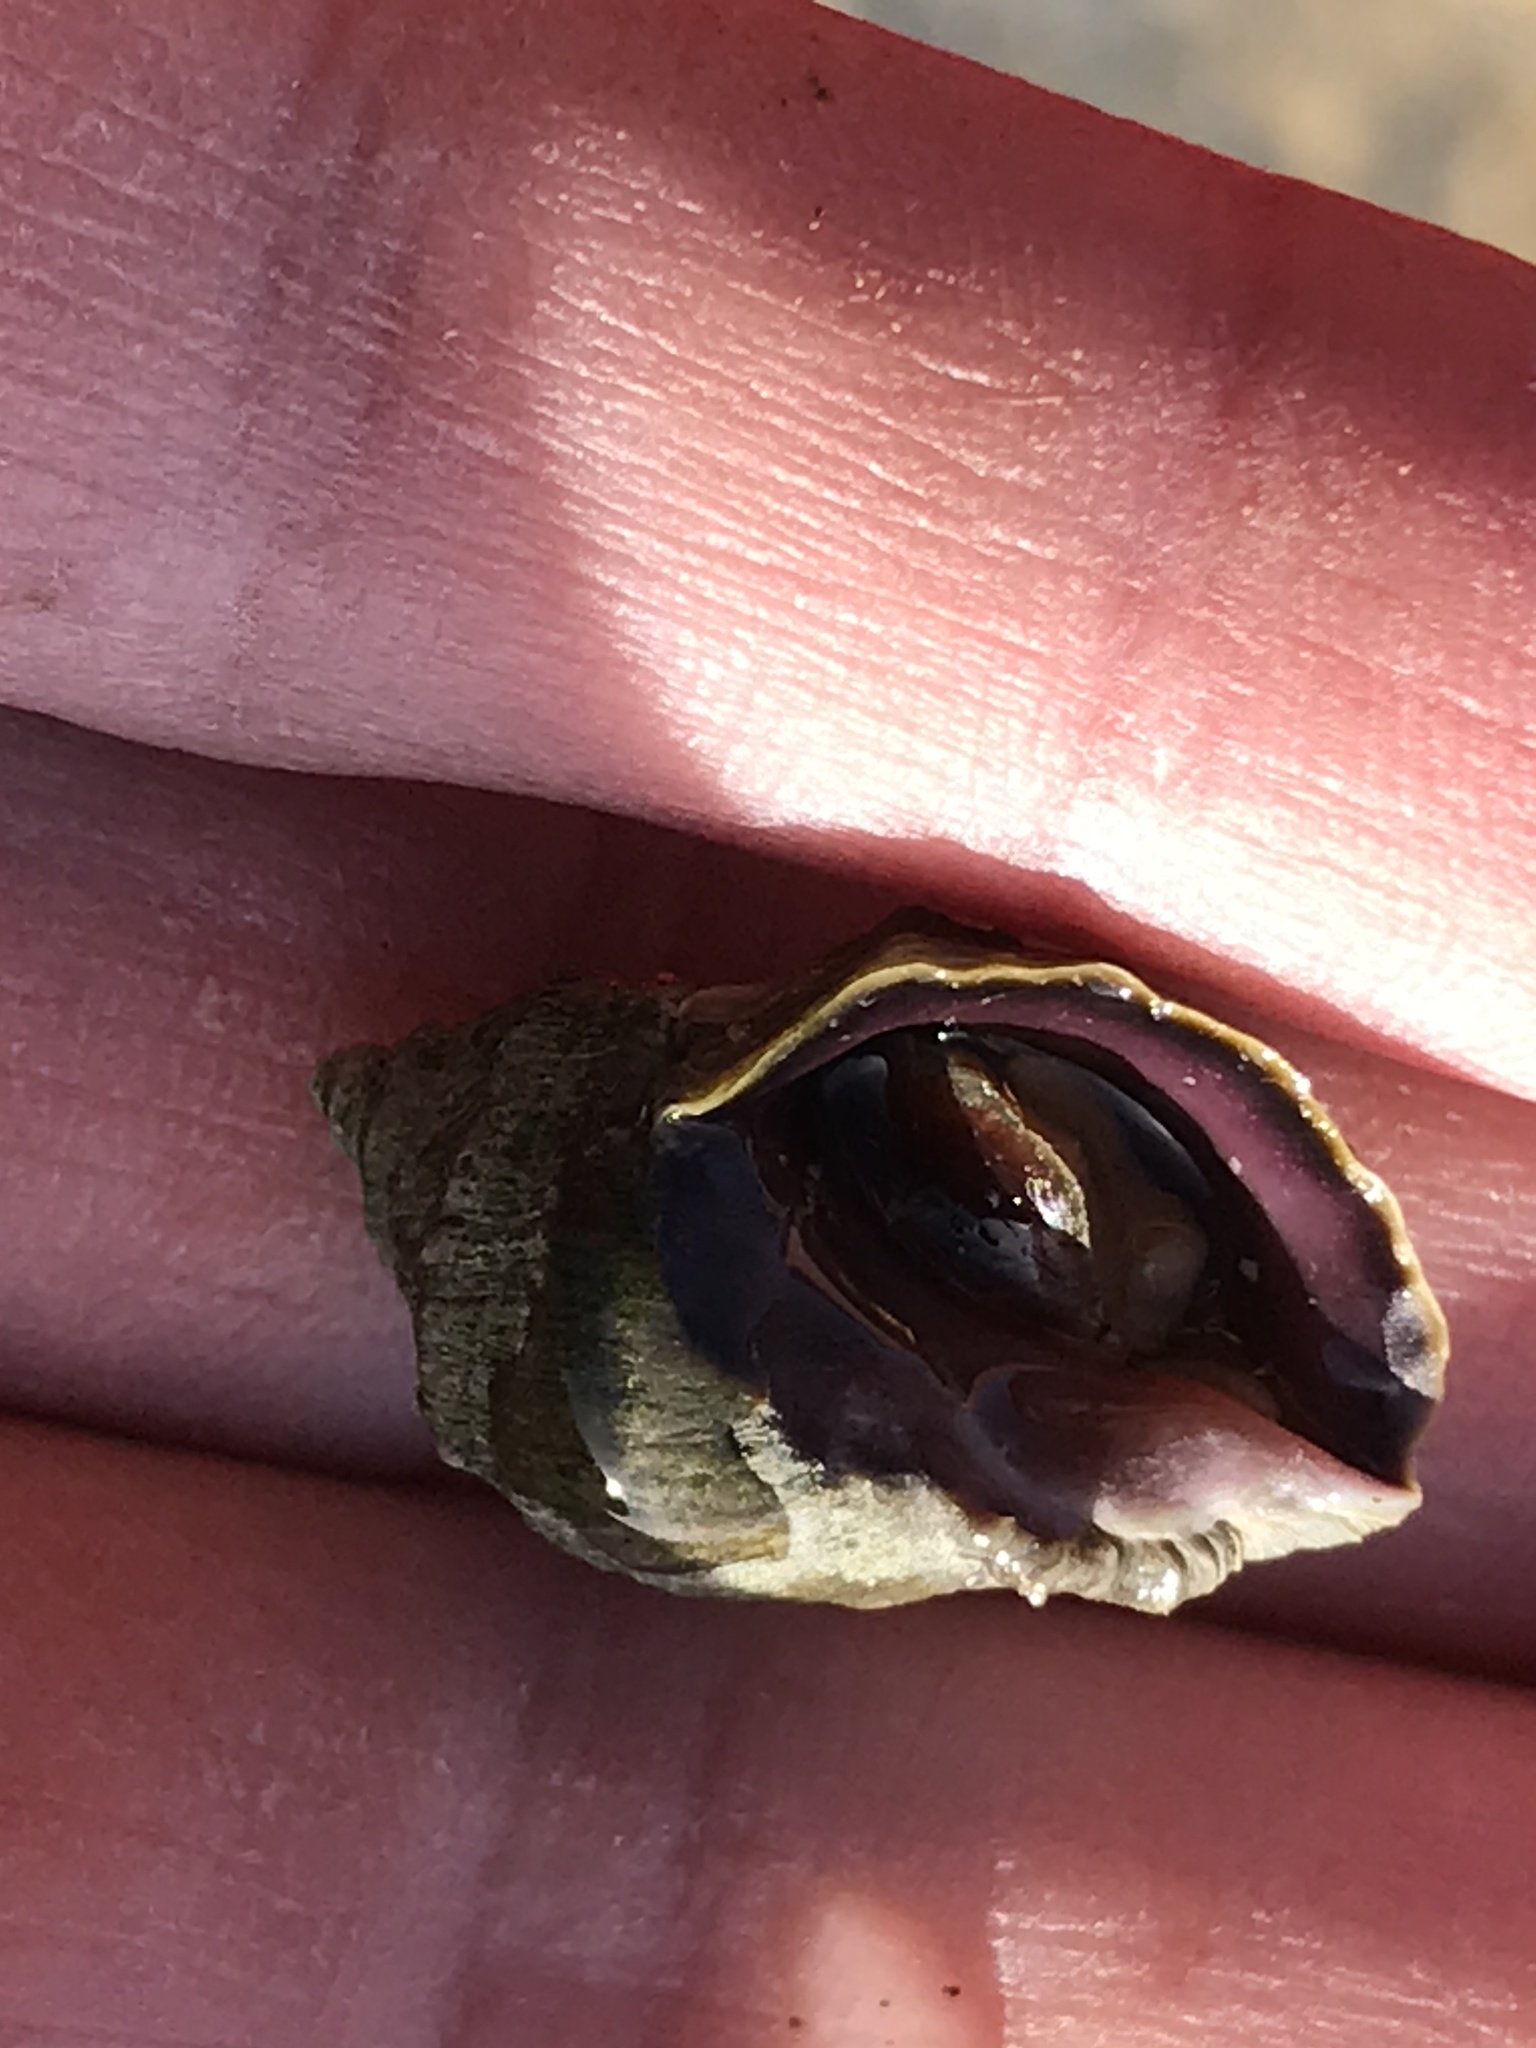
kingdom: Animalia
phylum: Mollusca
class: Gastropoda
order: Neogastropoda
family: Muricidae
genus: Nucella
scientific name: Nucella ostrina
